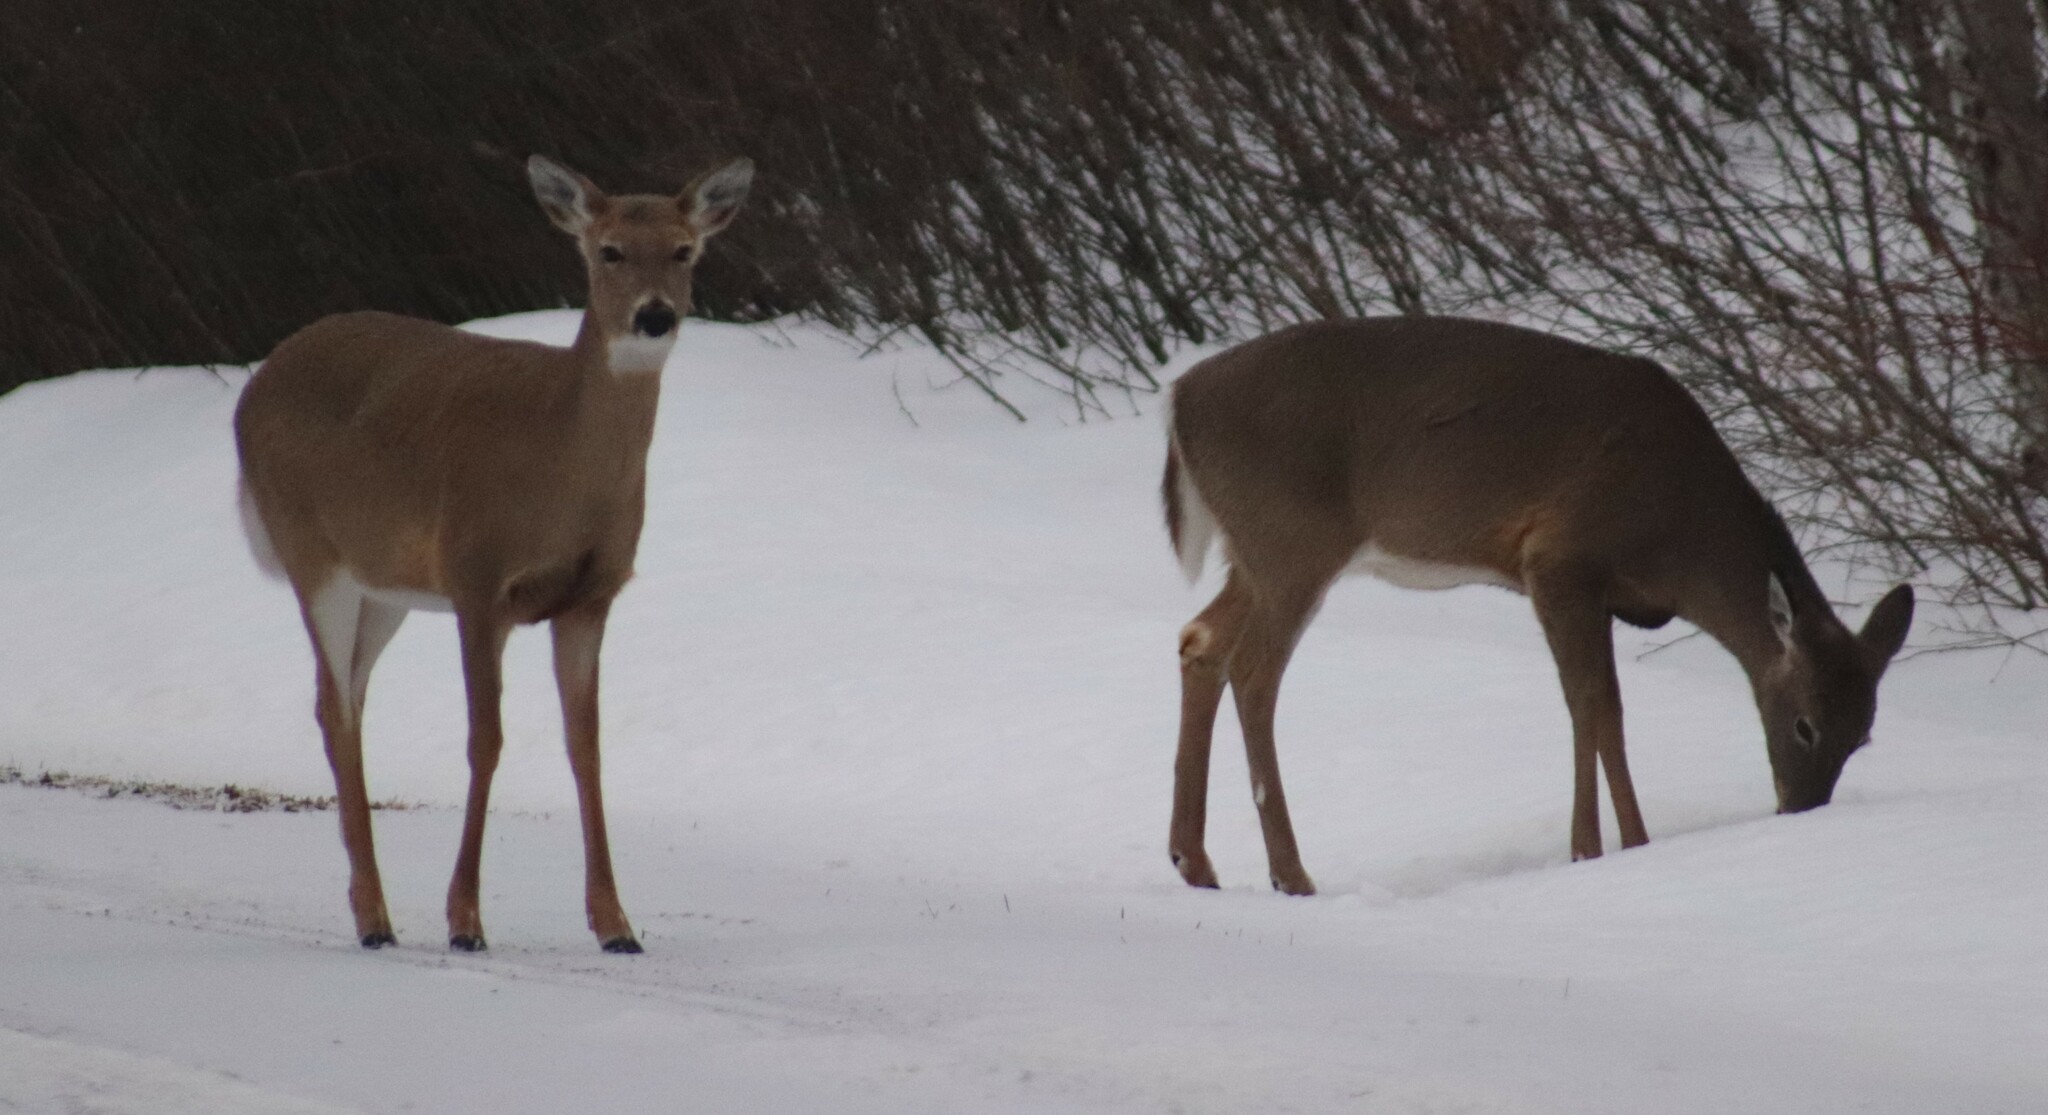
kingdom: Animalia
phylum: Chordata
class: Mammalia
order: Artiodactyla
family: Cervidae
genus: Odocoileus
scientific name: Odocoileus virginianus
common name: White-tailed deer
